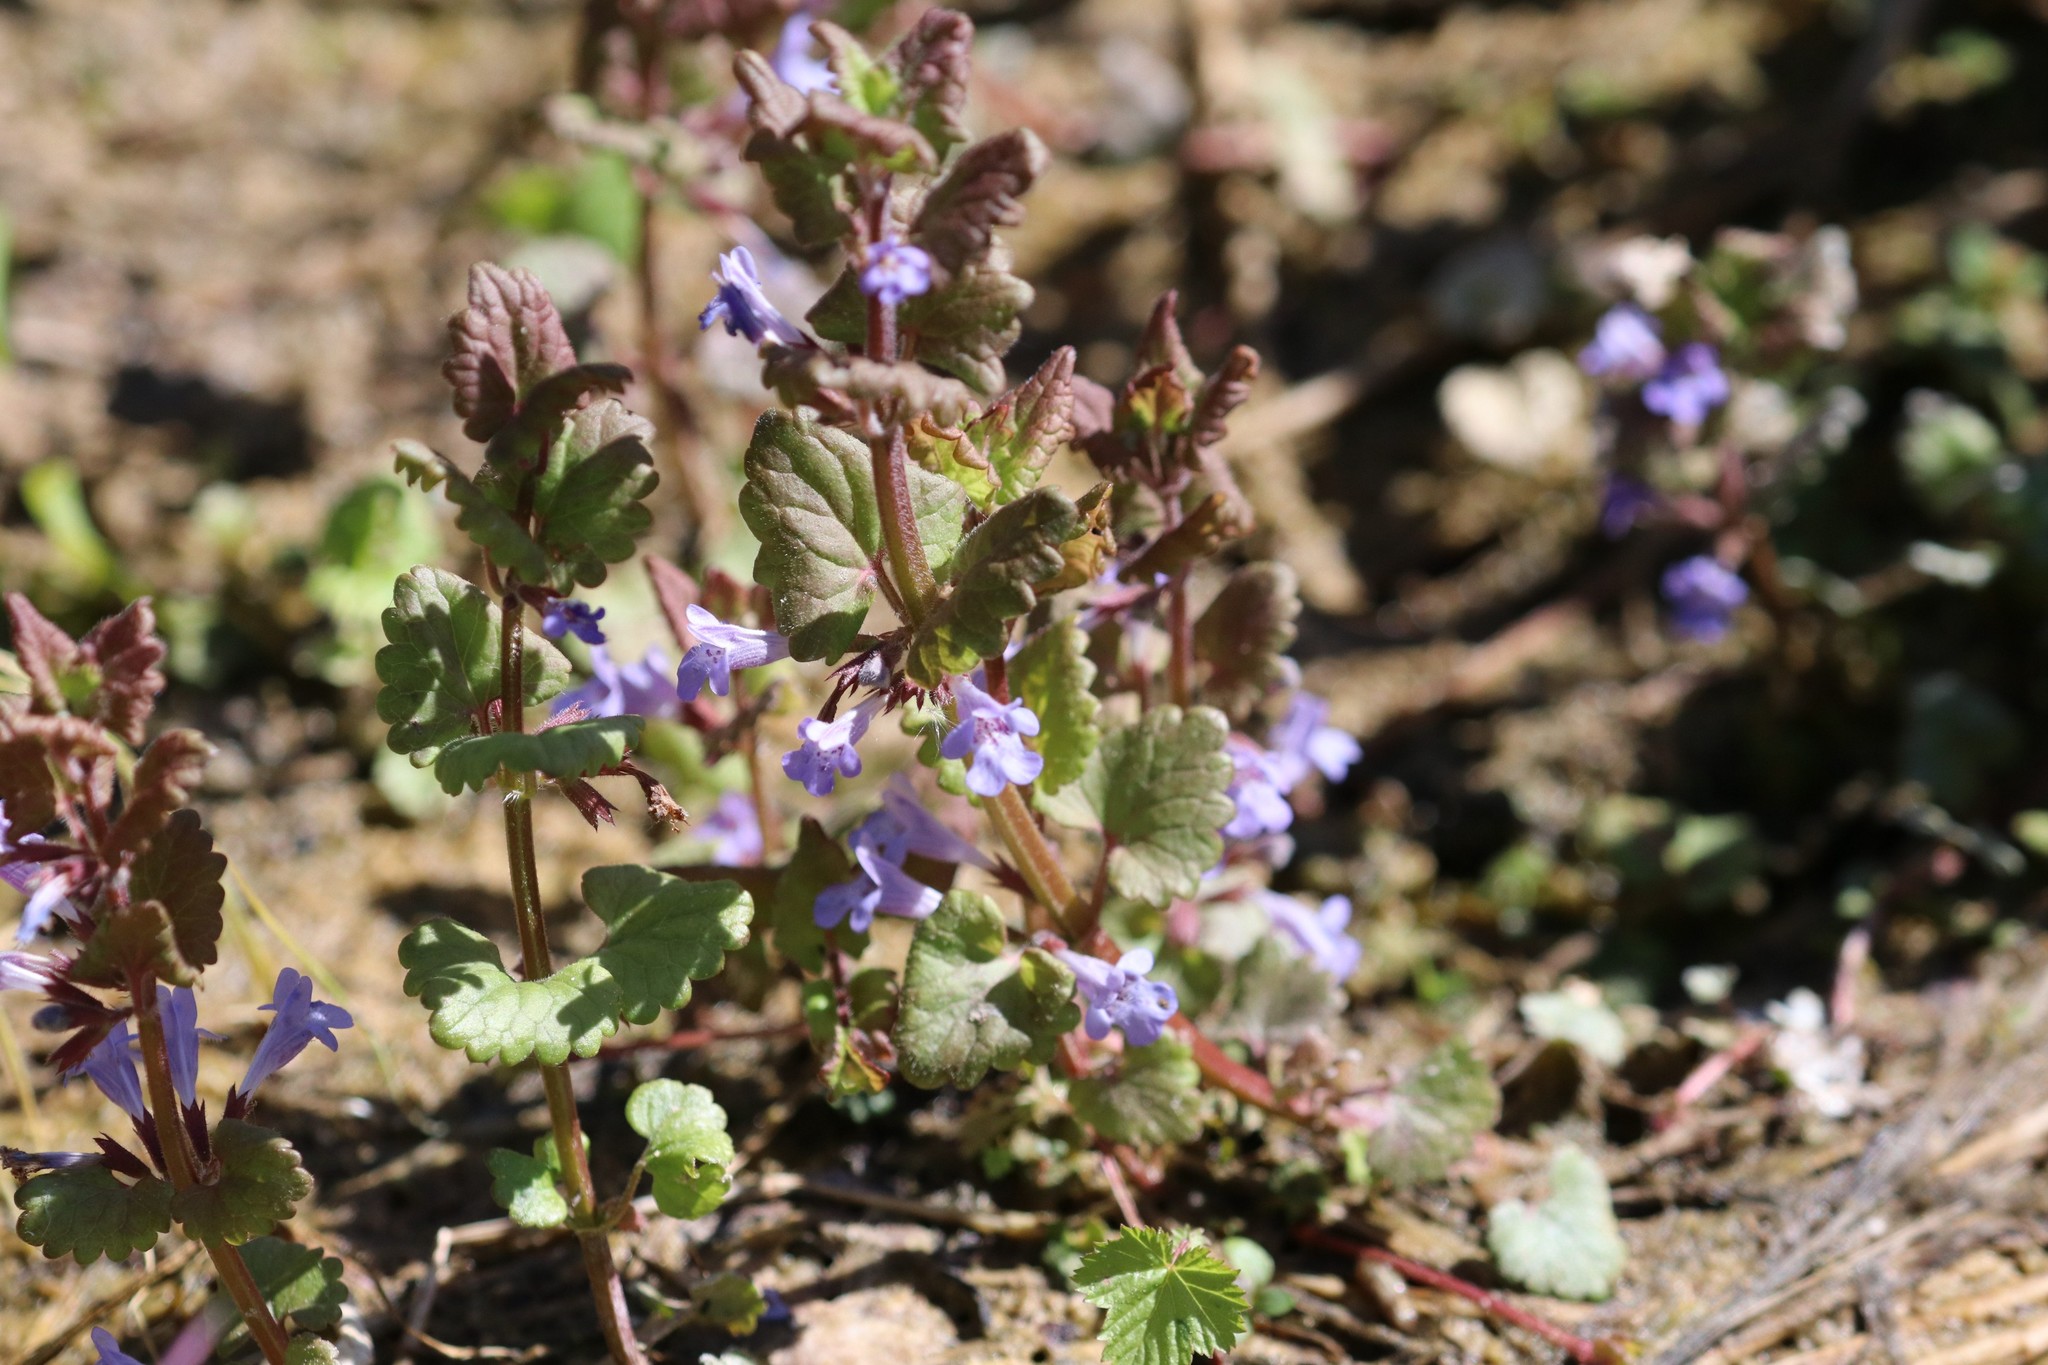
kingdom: Plantae
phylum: Tracheophyta
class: Magnoliopsida
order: Lamiales
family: Lamiaceae
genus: Glechoma
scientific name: Glechoma hederacea
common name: Ground ivy
